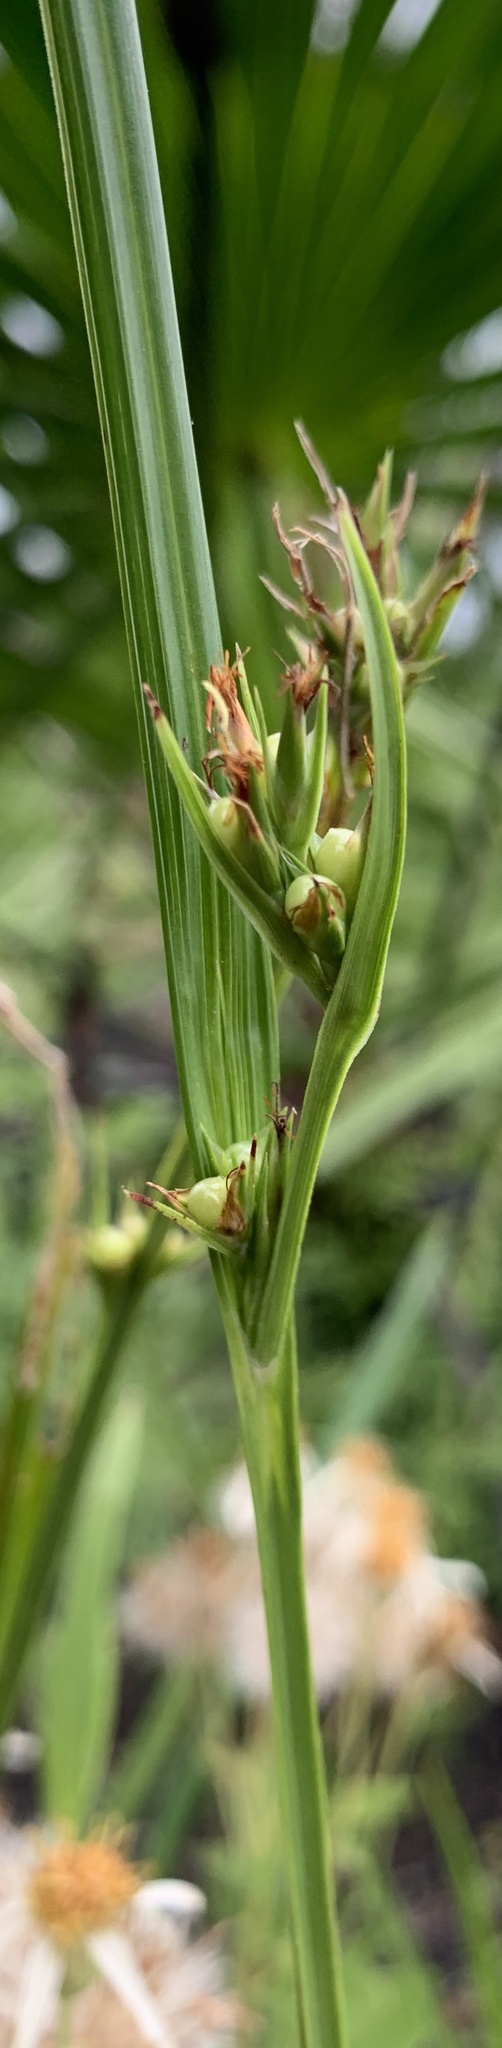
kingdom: Plantae
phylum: Tracheophyta
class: Liliopsida
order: Poales
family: Cyperaceae
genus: Scleria
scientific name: Scleria triglomerata
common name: Whip nutrush
